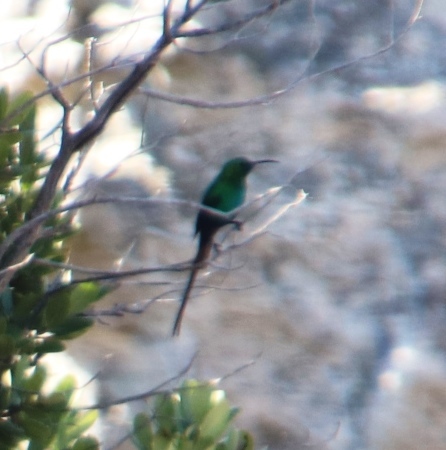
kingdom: Animalia
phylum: Chordata
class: Aves
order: Passeriformes
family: Nectariniidae
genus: Nectarinia
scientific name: Nectarinia famosa
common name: Malachite sunbird
